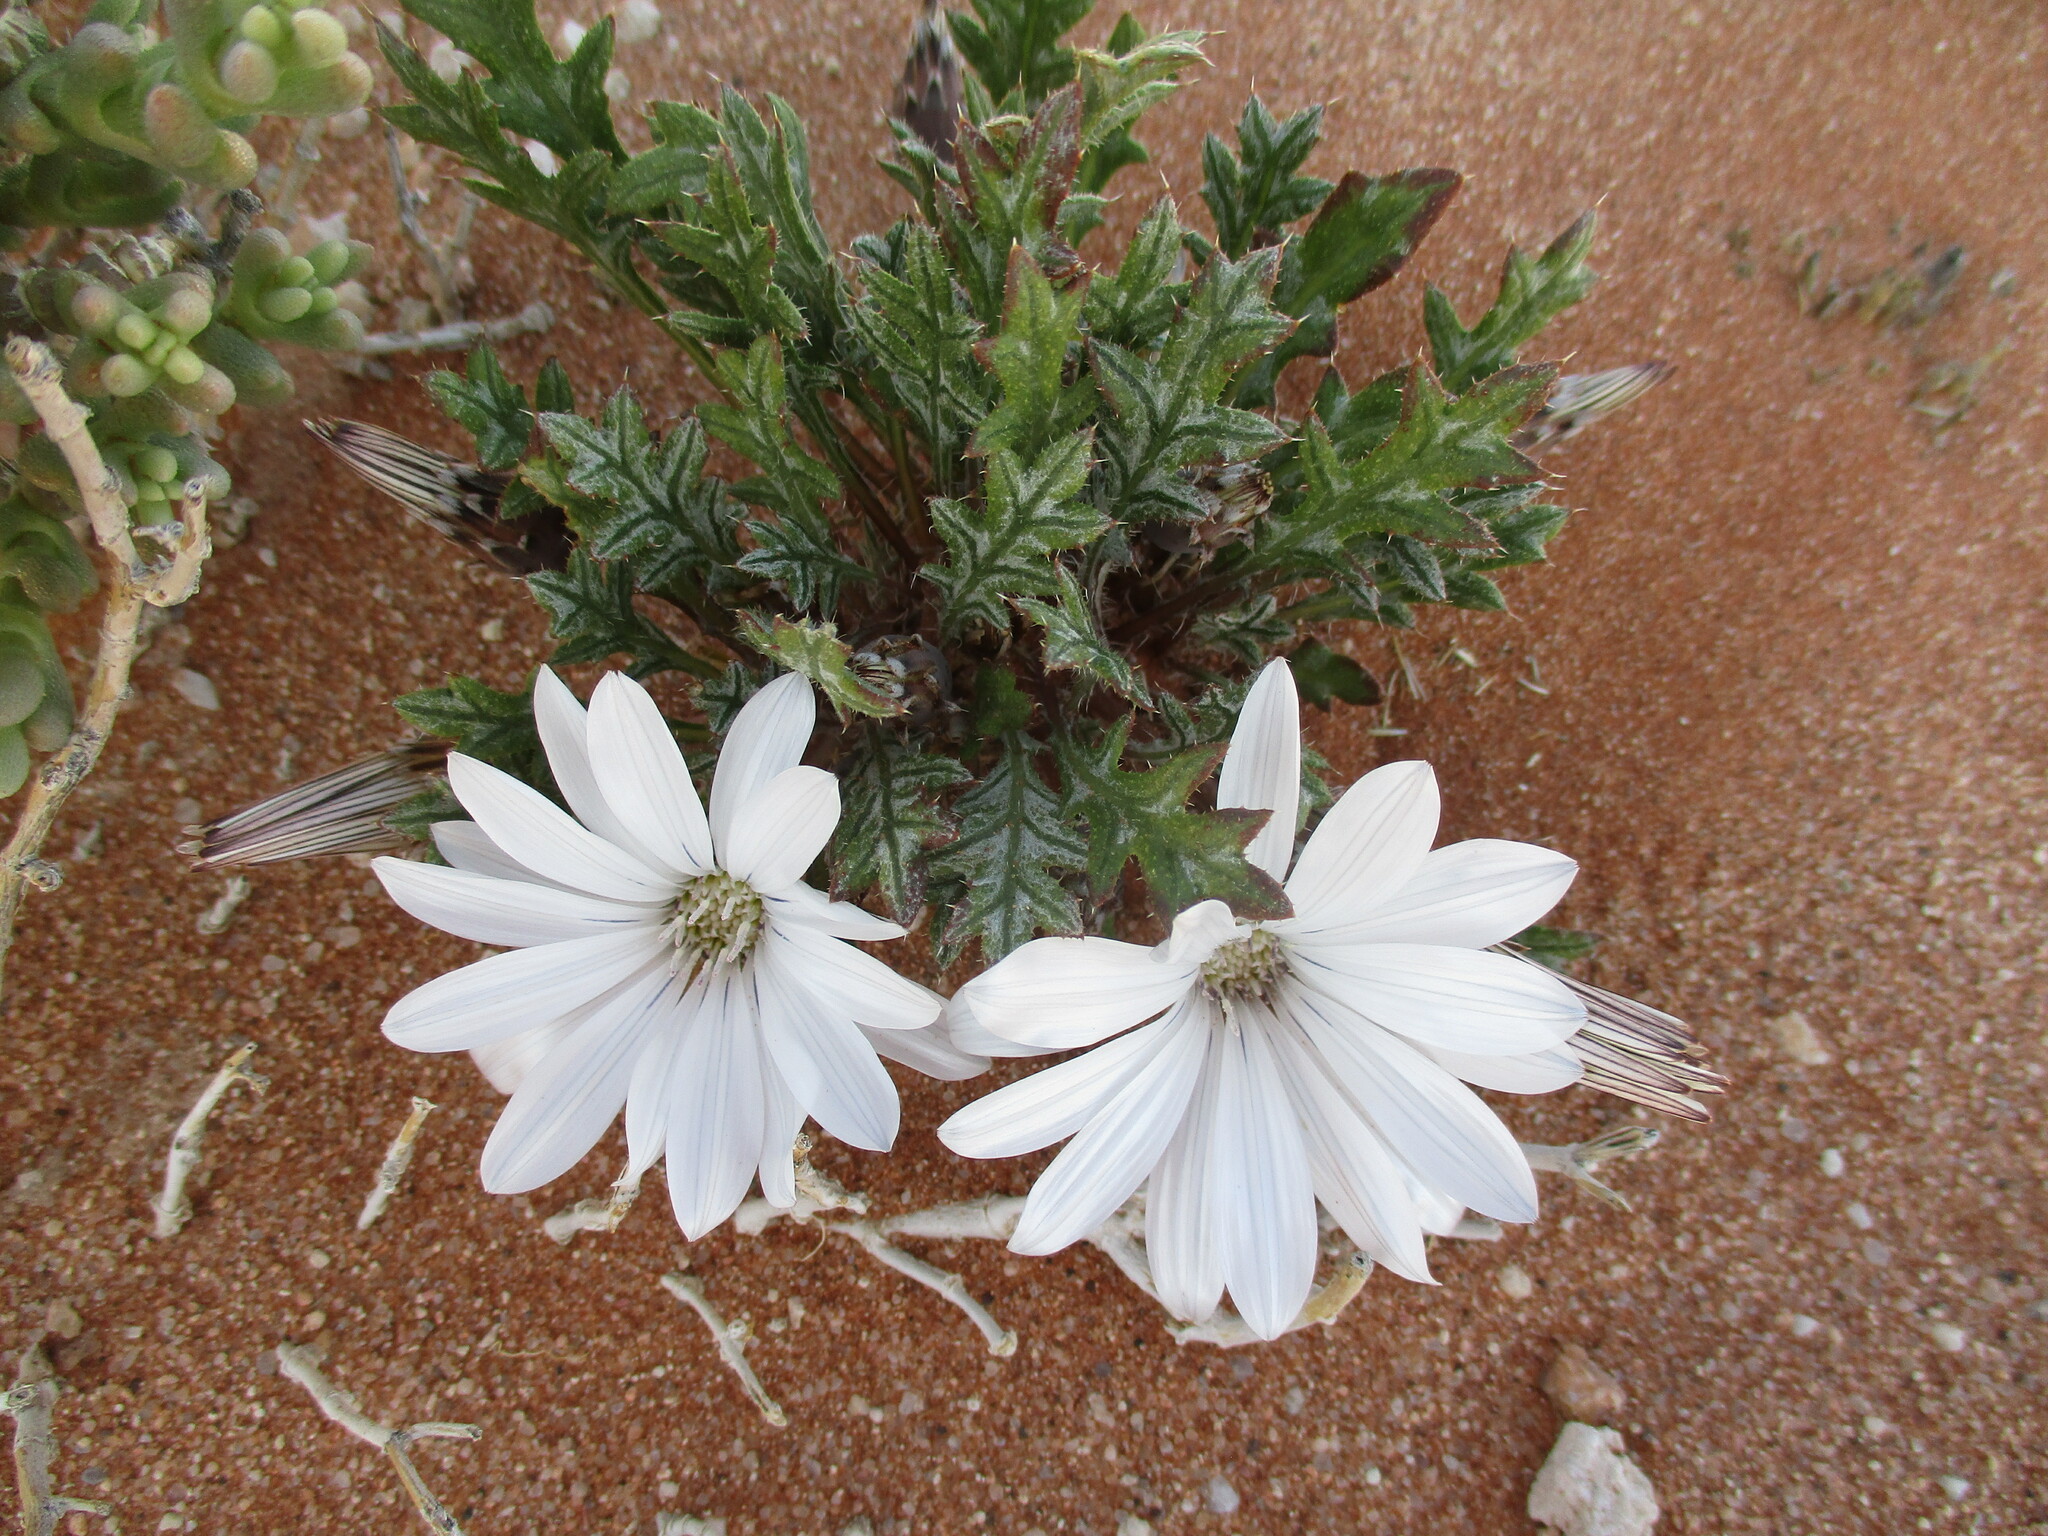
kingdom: Plantae
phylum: Tracheophyta
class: Magnoliopsida
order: Asterales
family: Asteraceae
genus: Gazania
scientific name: Gazania jurineifolia
